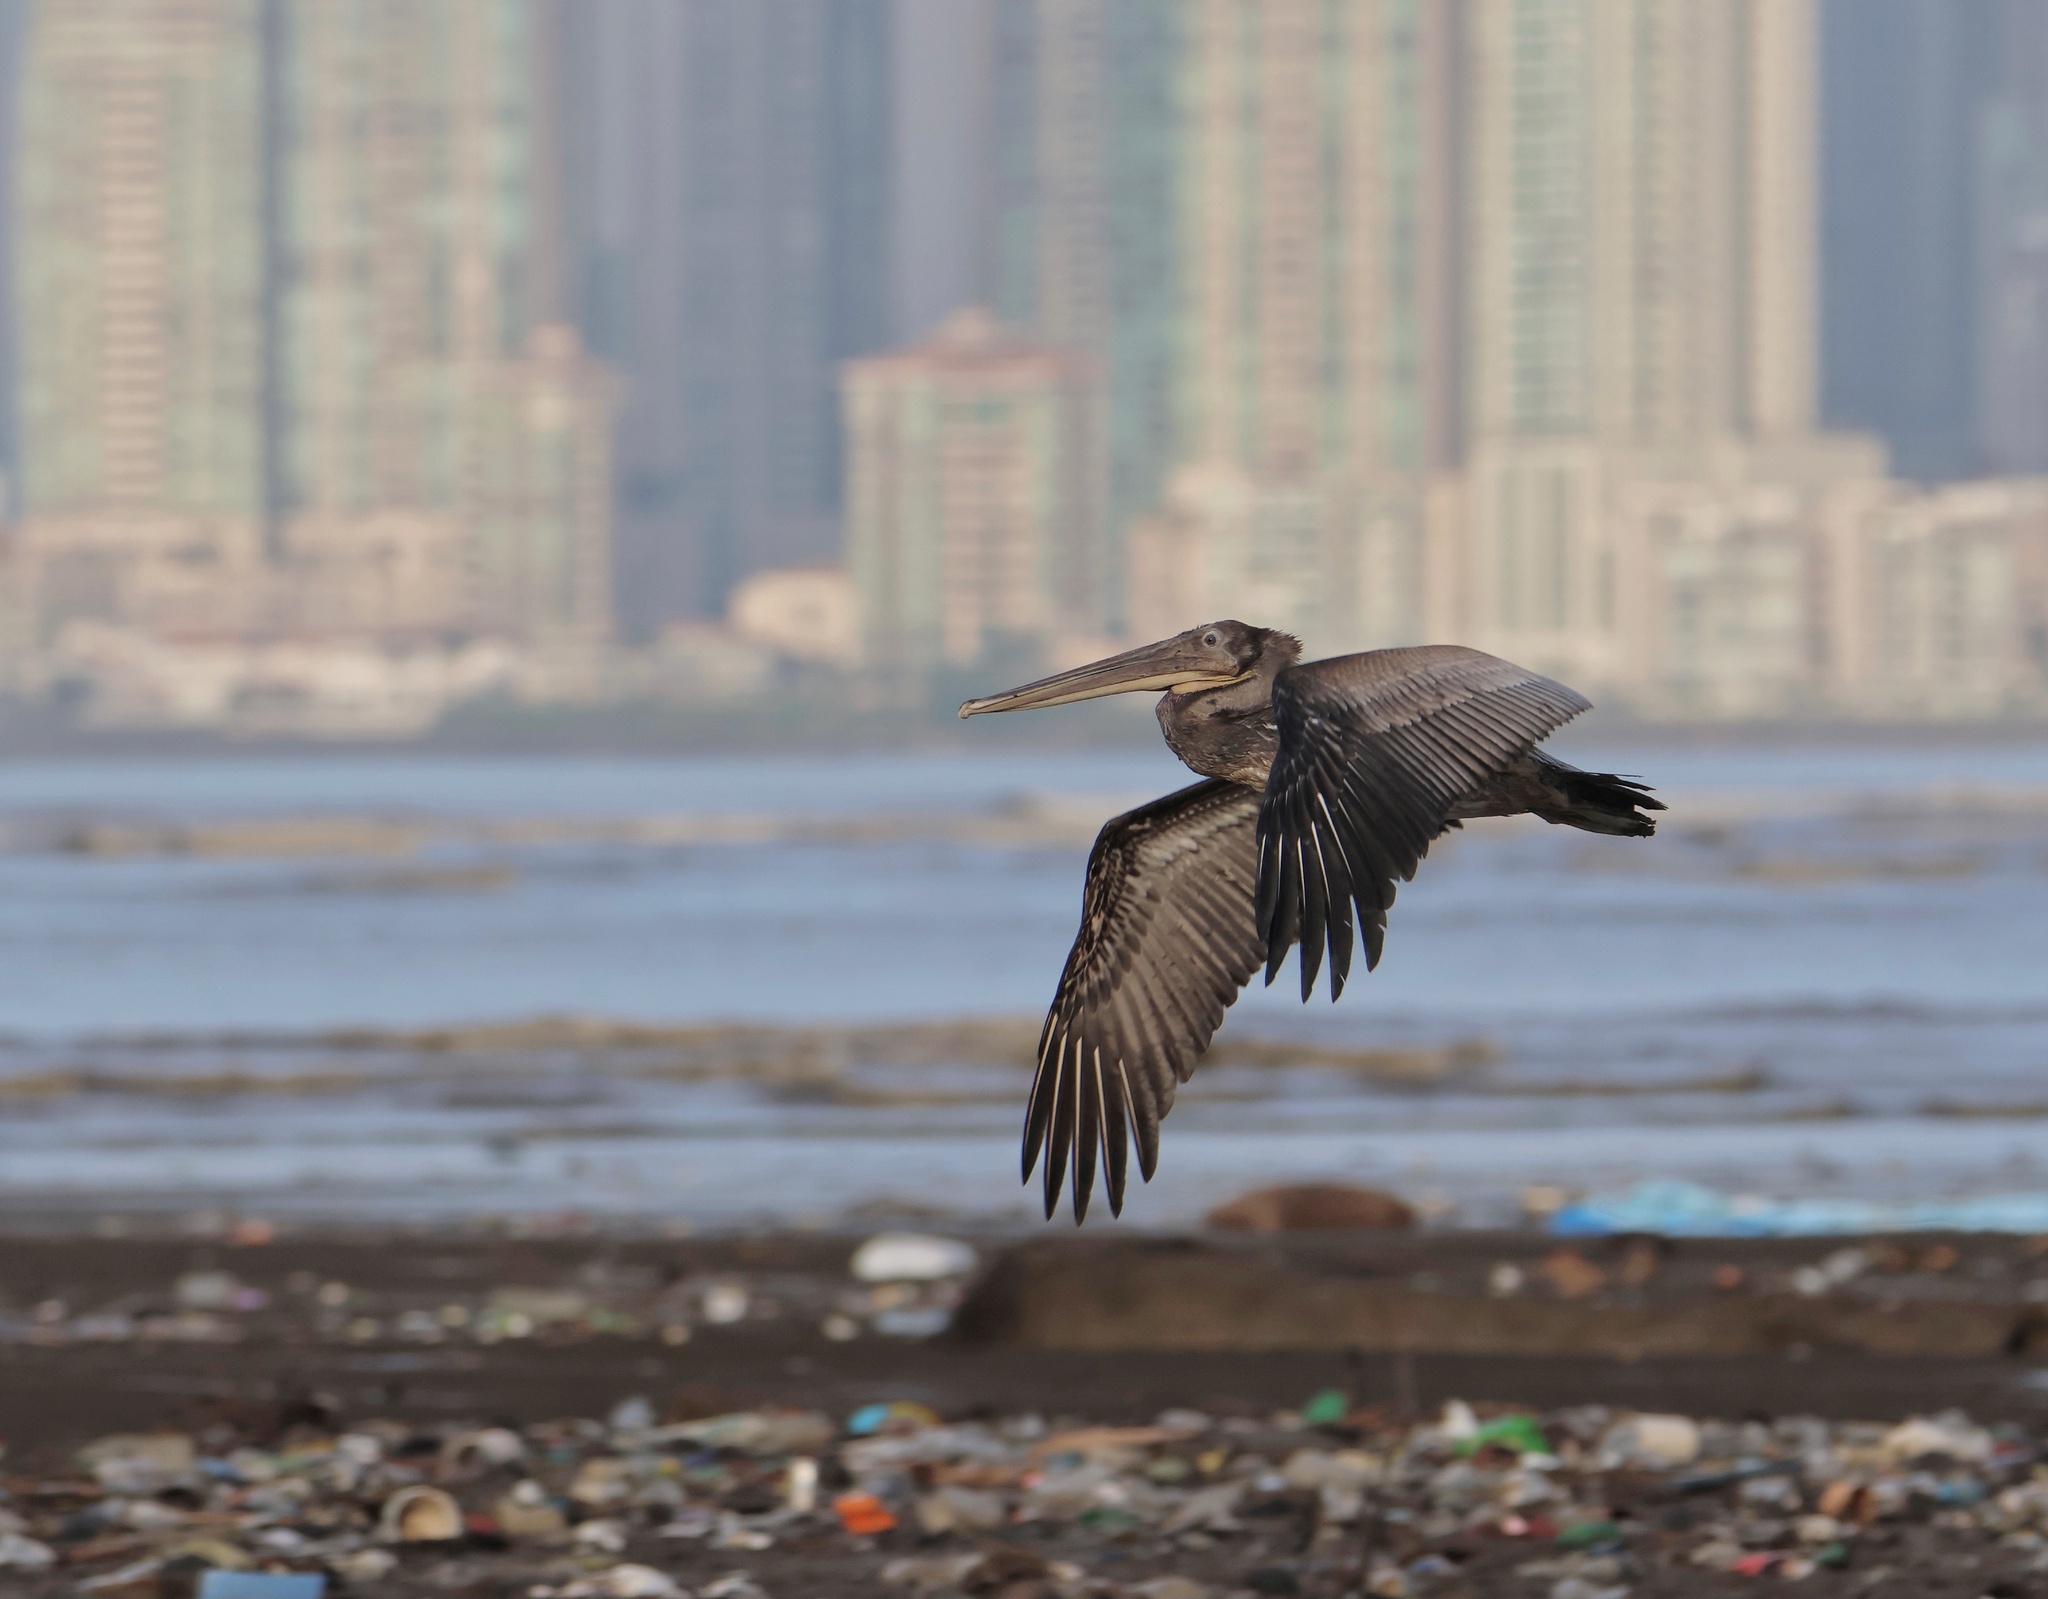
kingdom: Animalia
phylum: Chordata
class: Aves
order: Pelecaniformes
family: Pelecanidae
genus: Pelecanus
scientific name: Pelecanus occidentalis
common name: Brown pelican
